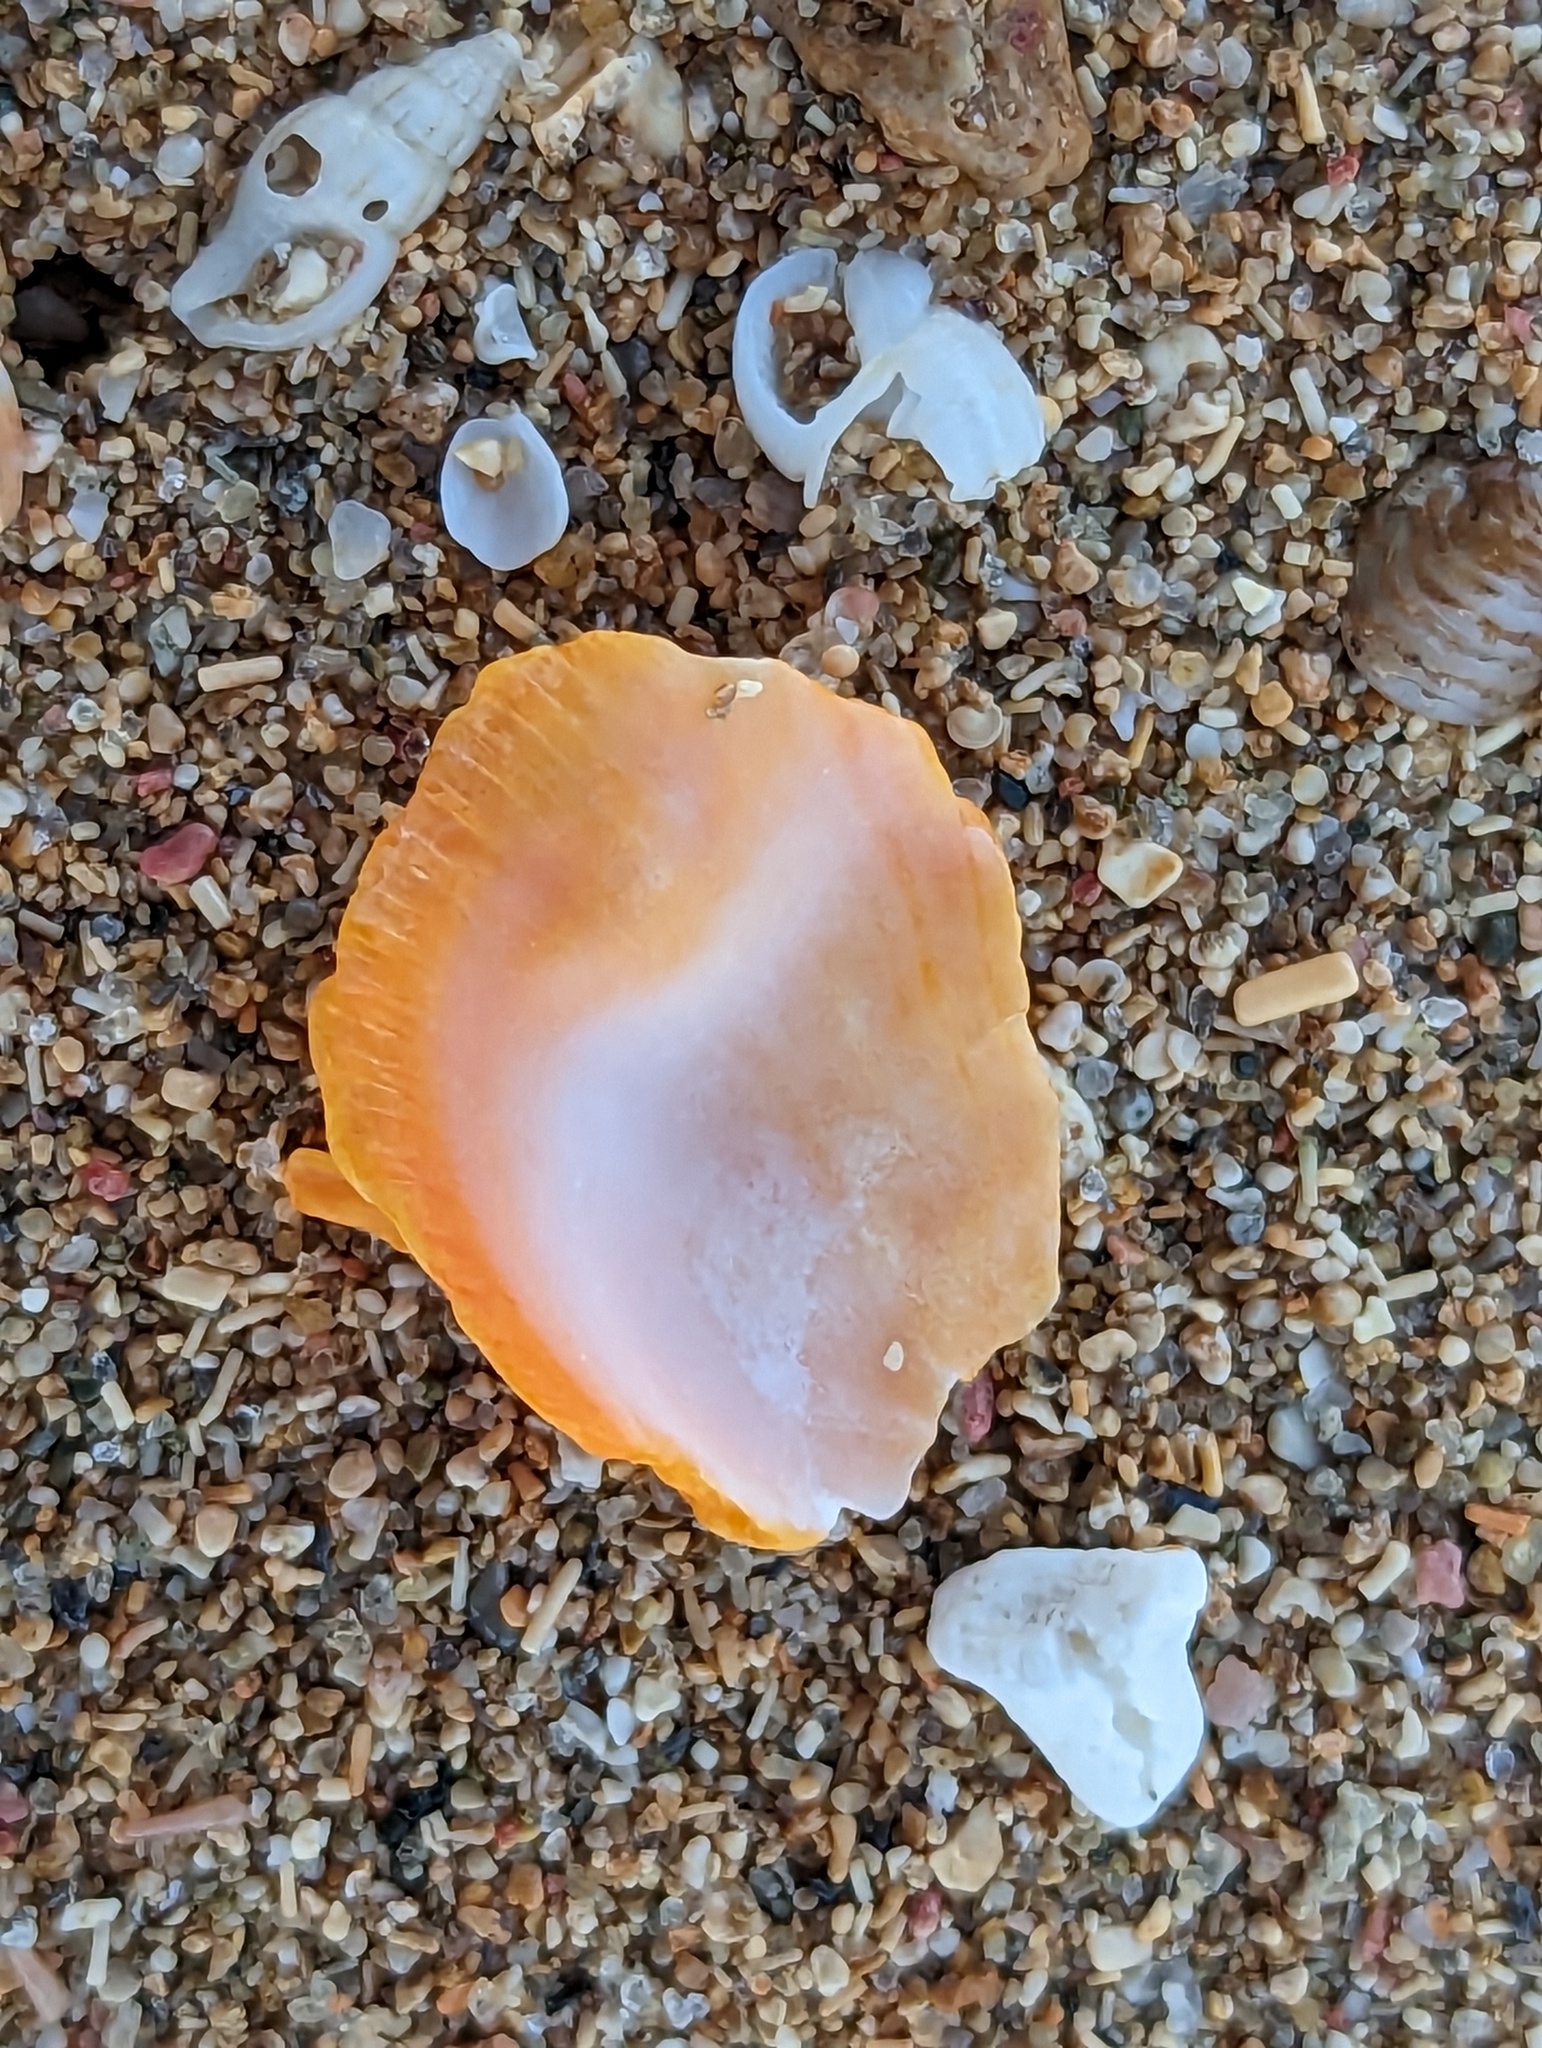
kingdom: Animalia
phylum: Mollusca
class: Bivalvia
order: Pectinida
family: Spondylidae
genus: Spondylus
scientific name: Spondylus tenuis
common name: Digitate thorny oyster
